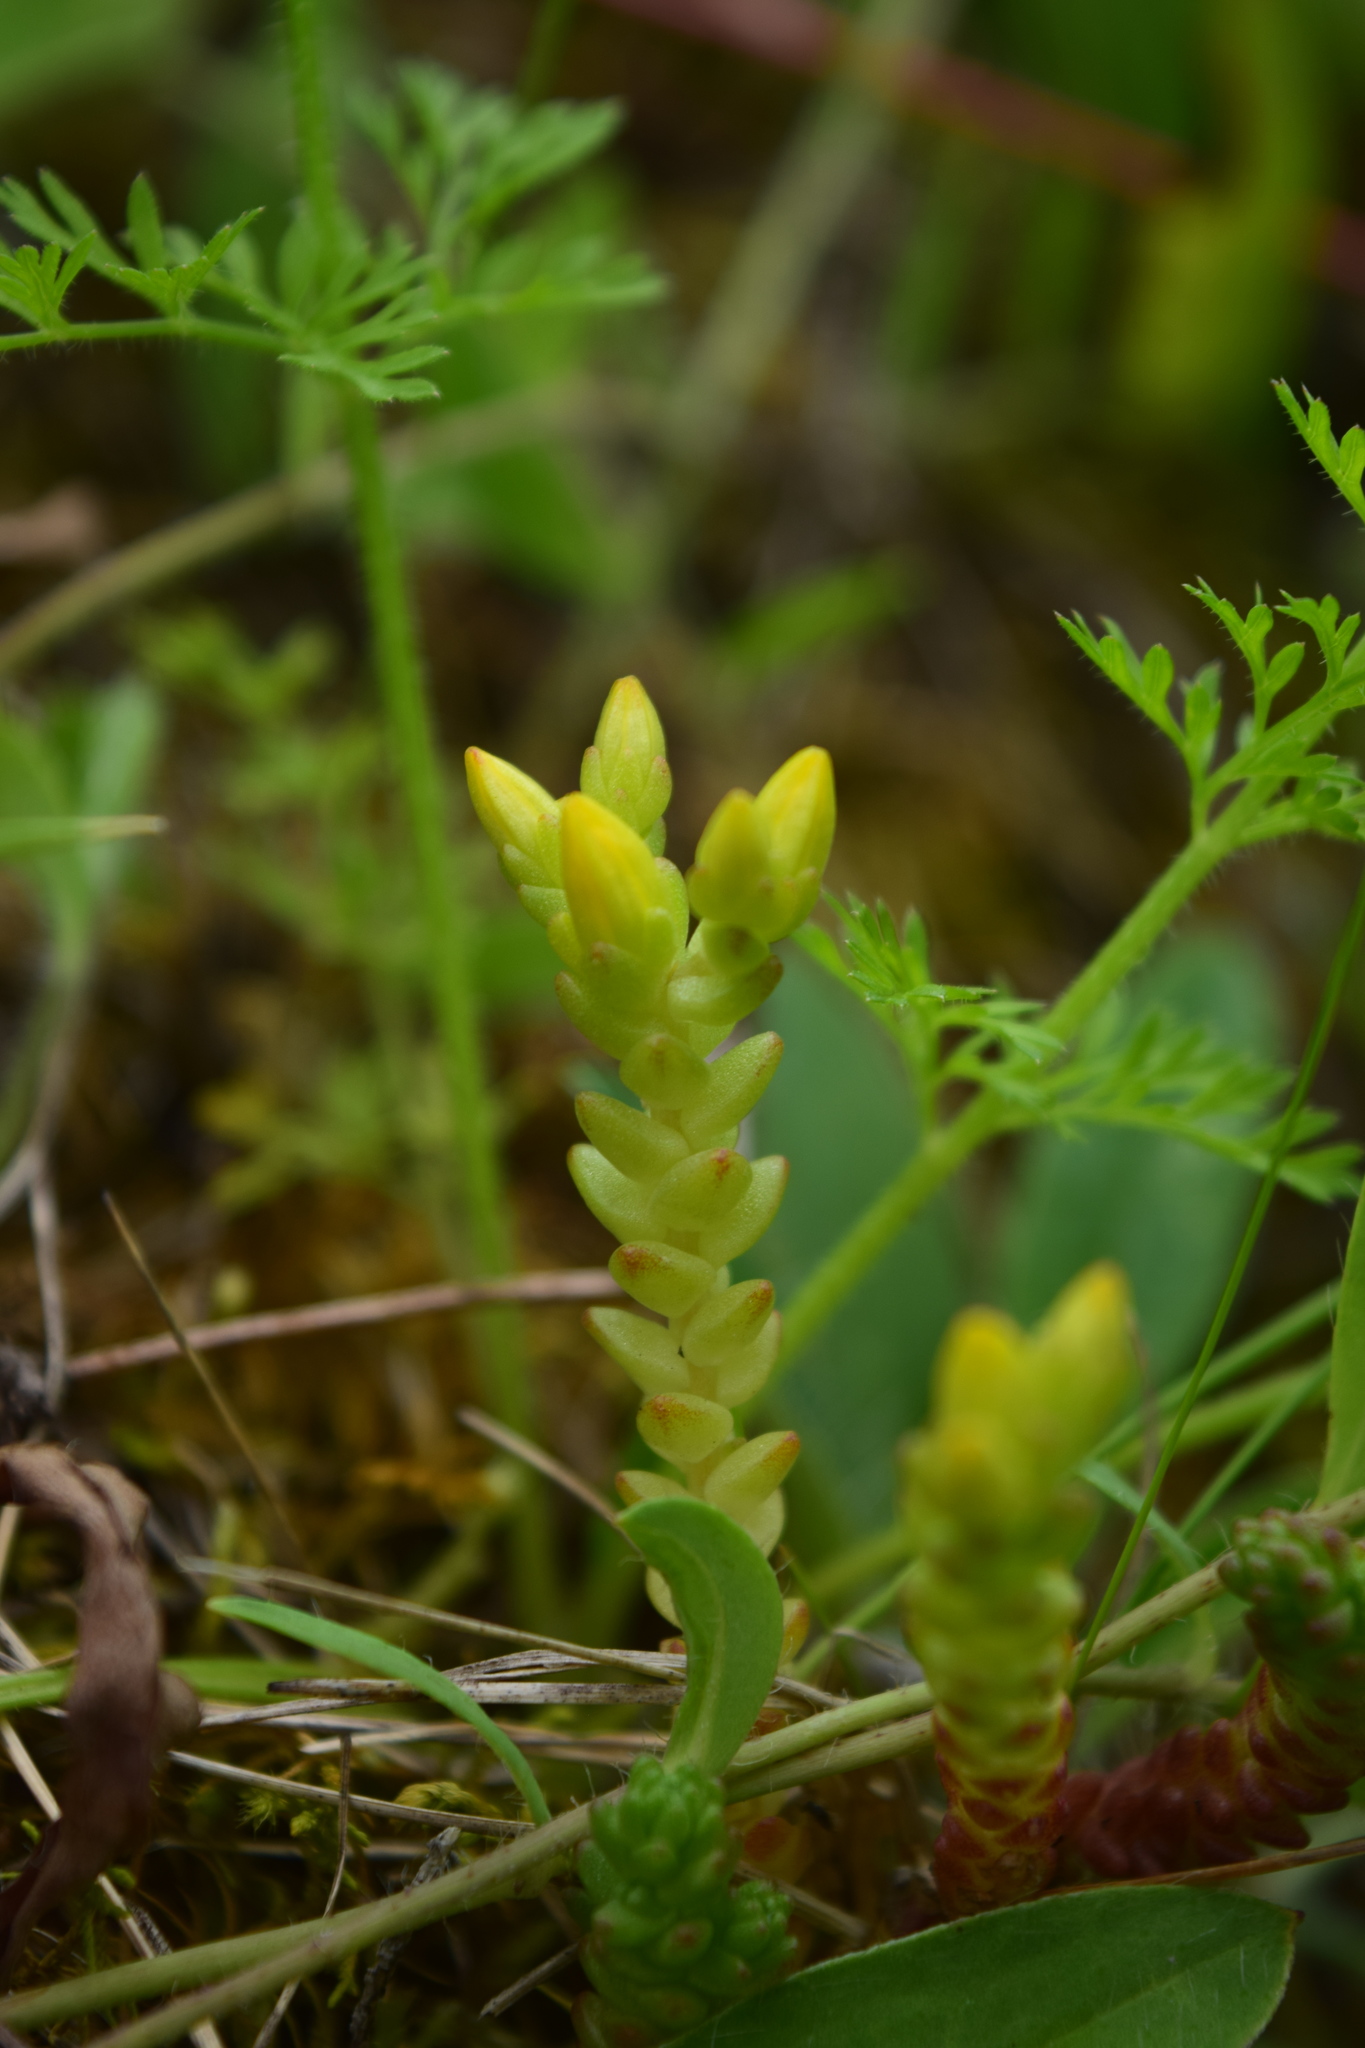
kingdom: Plantae
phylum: Tracheophyta
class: Magnoliopsida
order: Saxifragales
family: Crassulaceae
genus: Sedum
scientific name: Sedum acre
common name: Biting stonecrop
